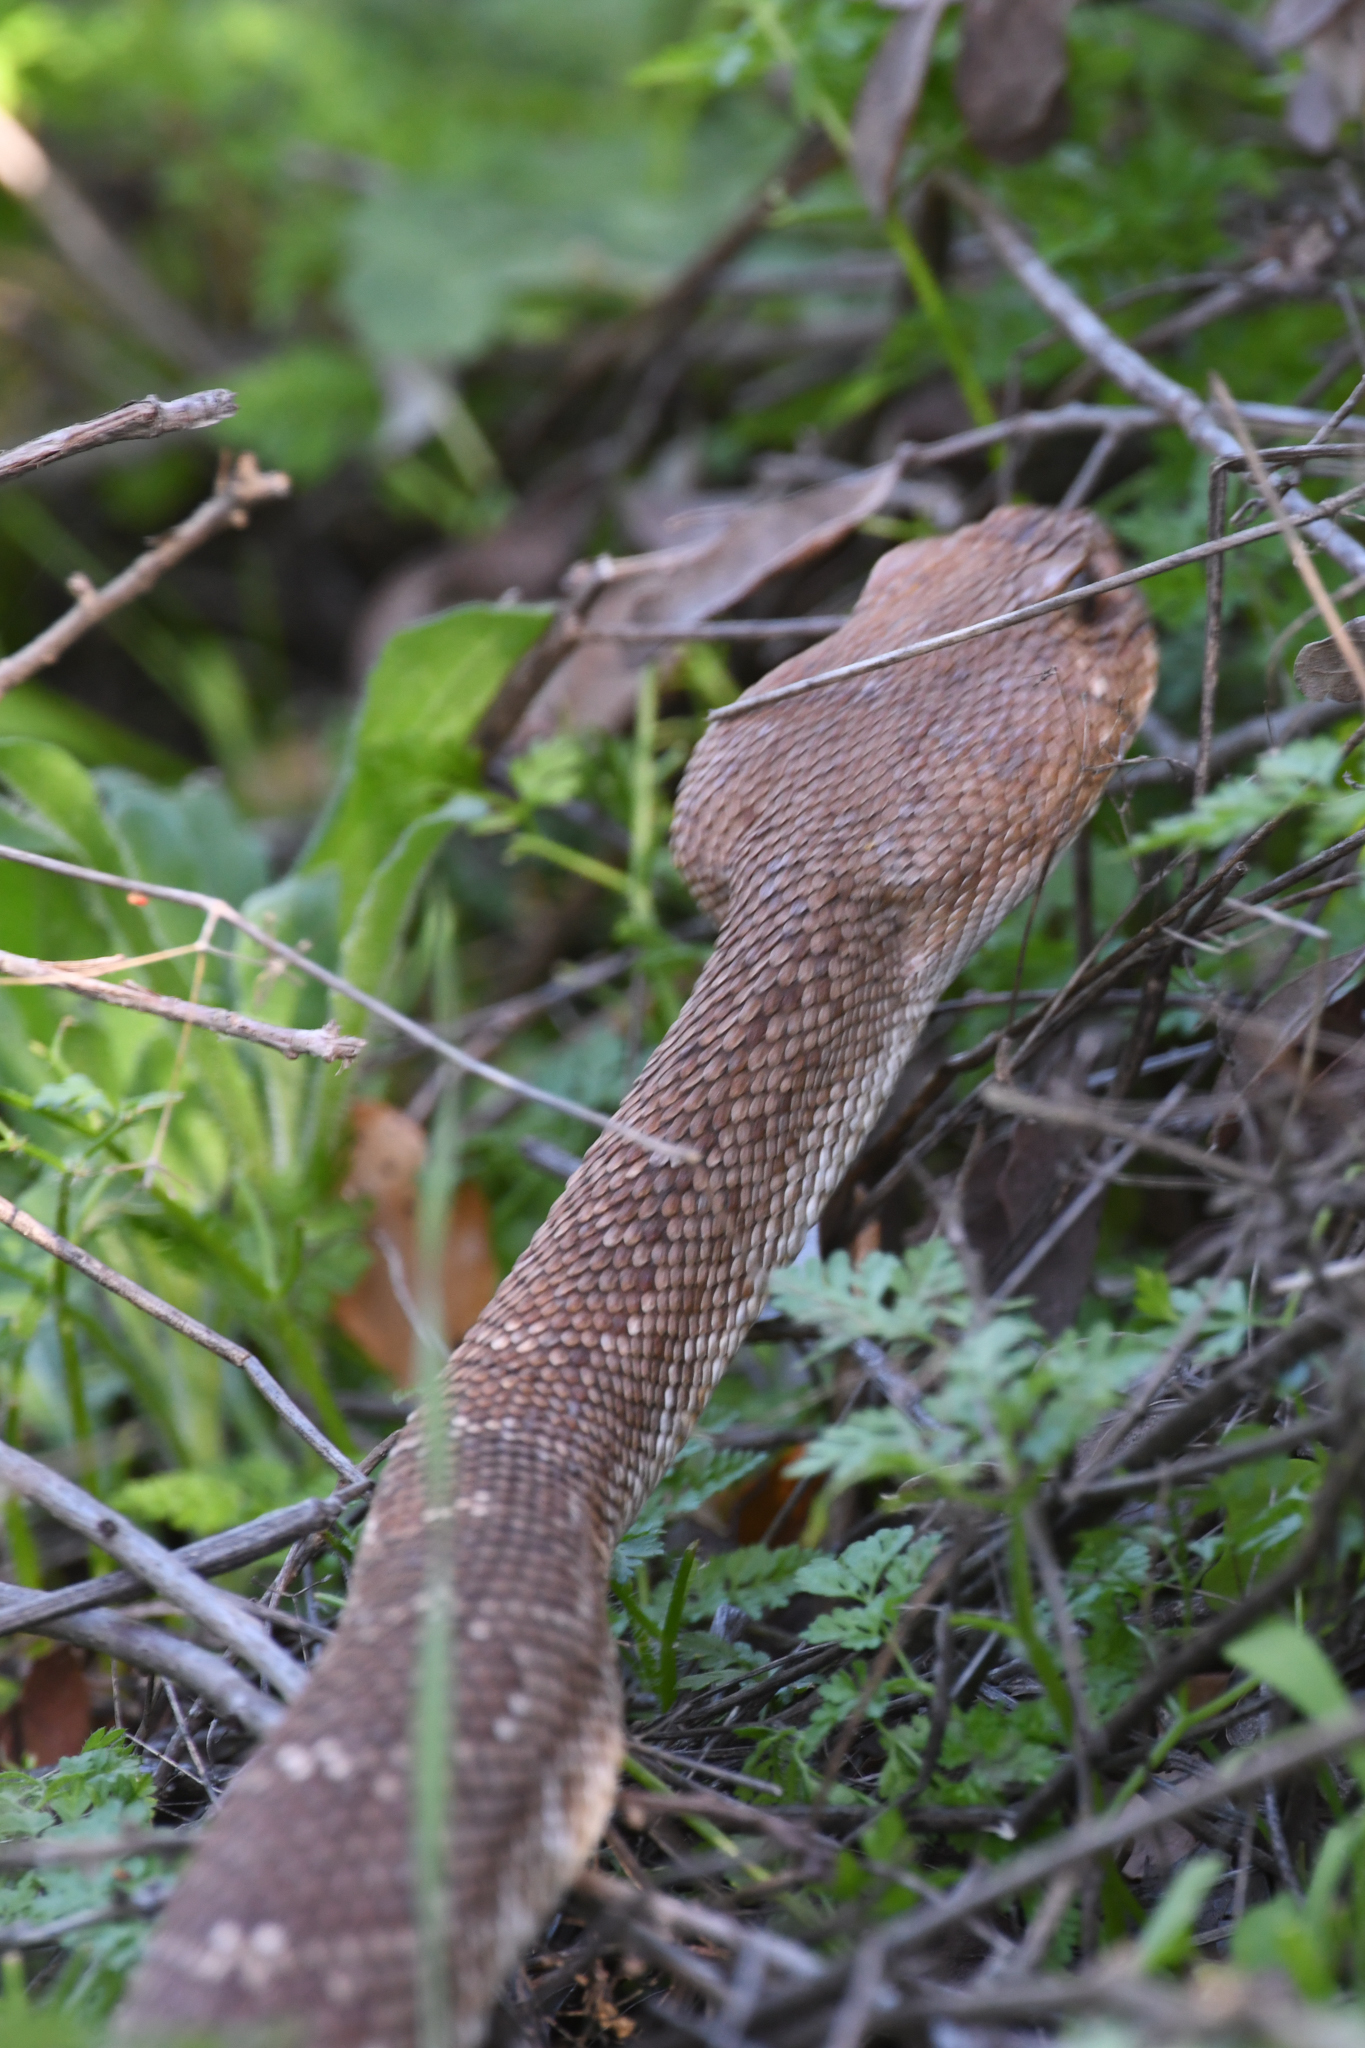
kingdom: Animalia
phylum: Chordata
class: Squamata
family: Viperidae
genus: Crotalus
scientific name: Crotalus ruber
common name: Red diamond rattlesnake
